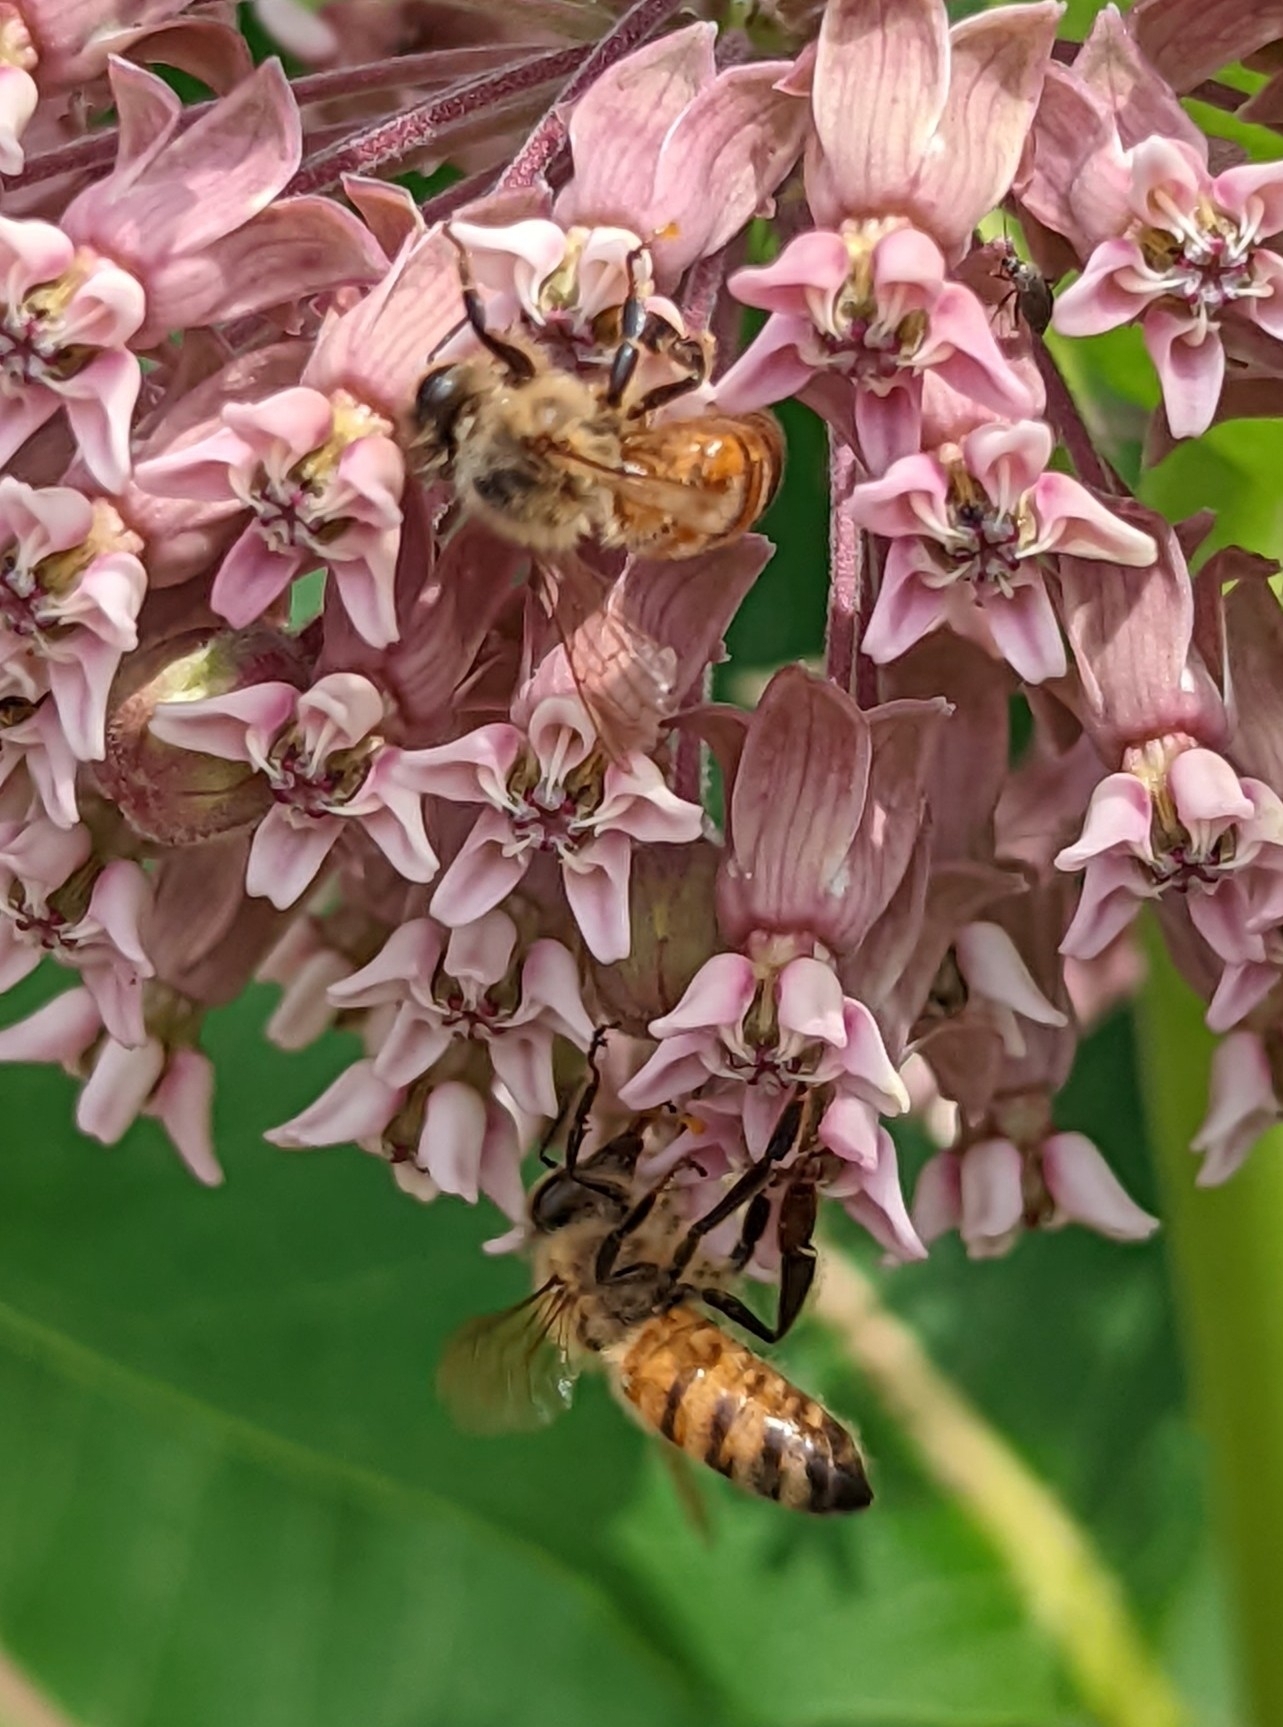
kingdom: Animalia
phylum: Arthropoda
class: Insecta
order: Hymenoptera
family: Apidae
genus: Apis
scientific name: Apis mellifera
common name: Honey bee
